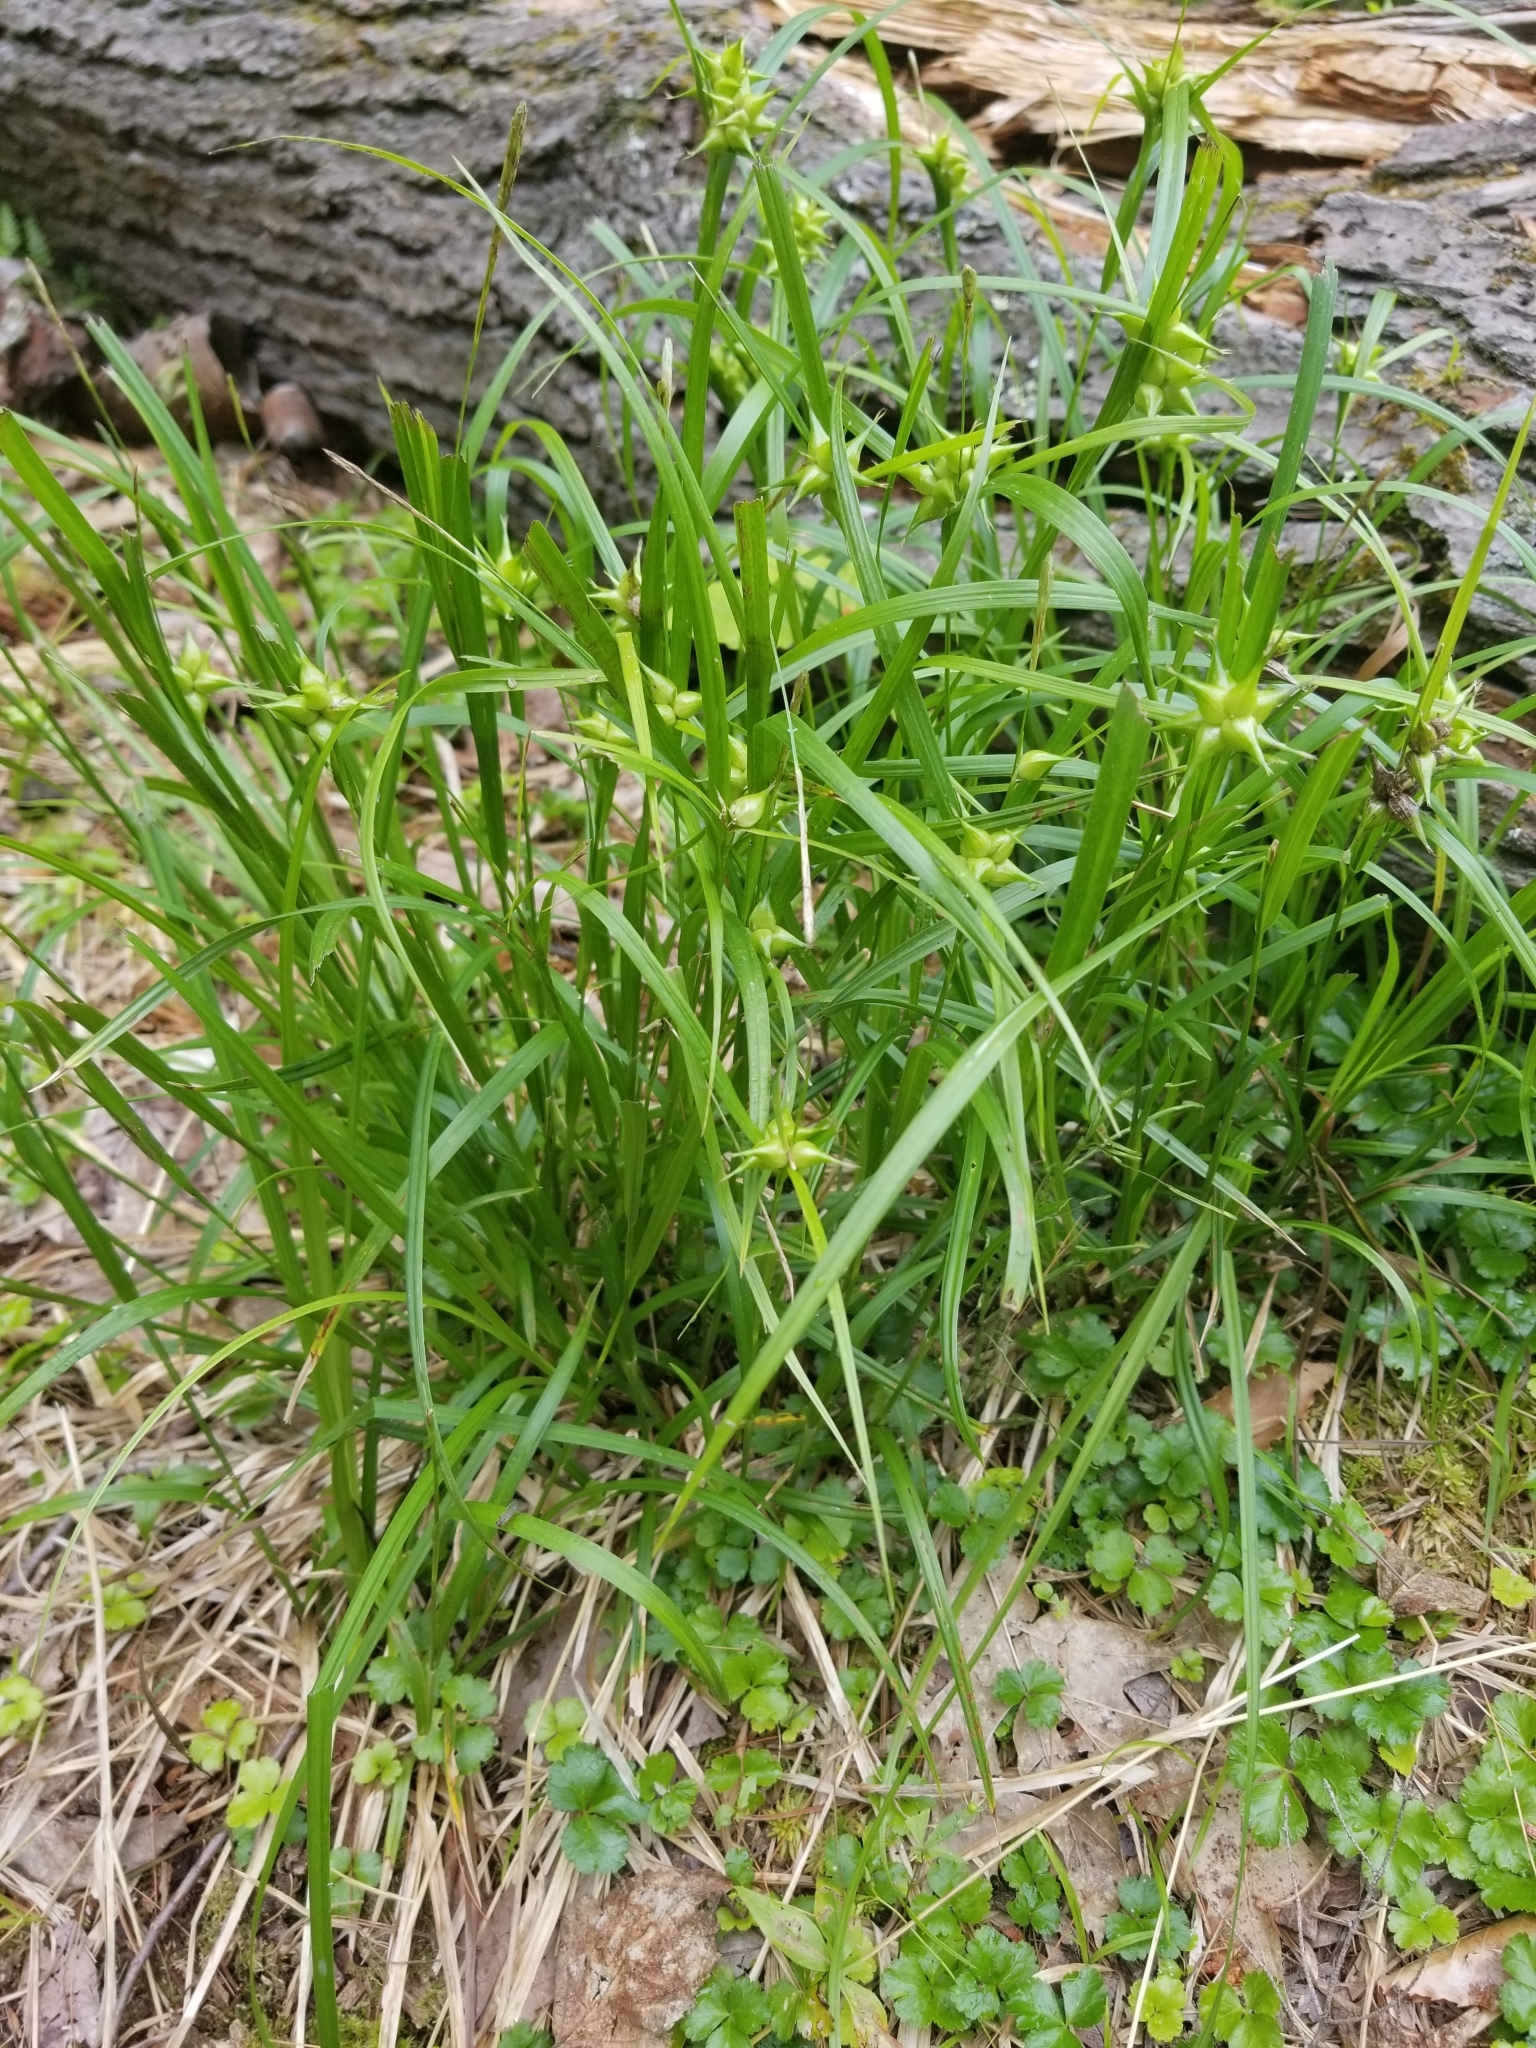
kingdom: Plantae
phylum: Tracheophyta
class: Liliopsida
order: Poales
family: Cyperaceae
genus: Carex
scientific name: Carex intumescens
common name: Greater bladder sedge
